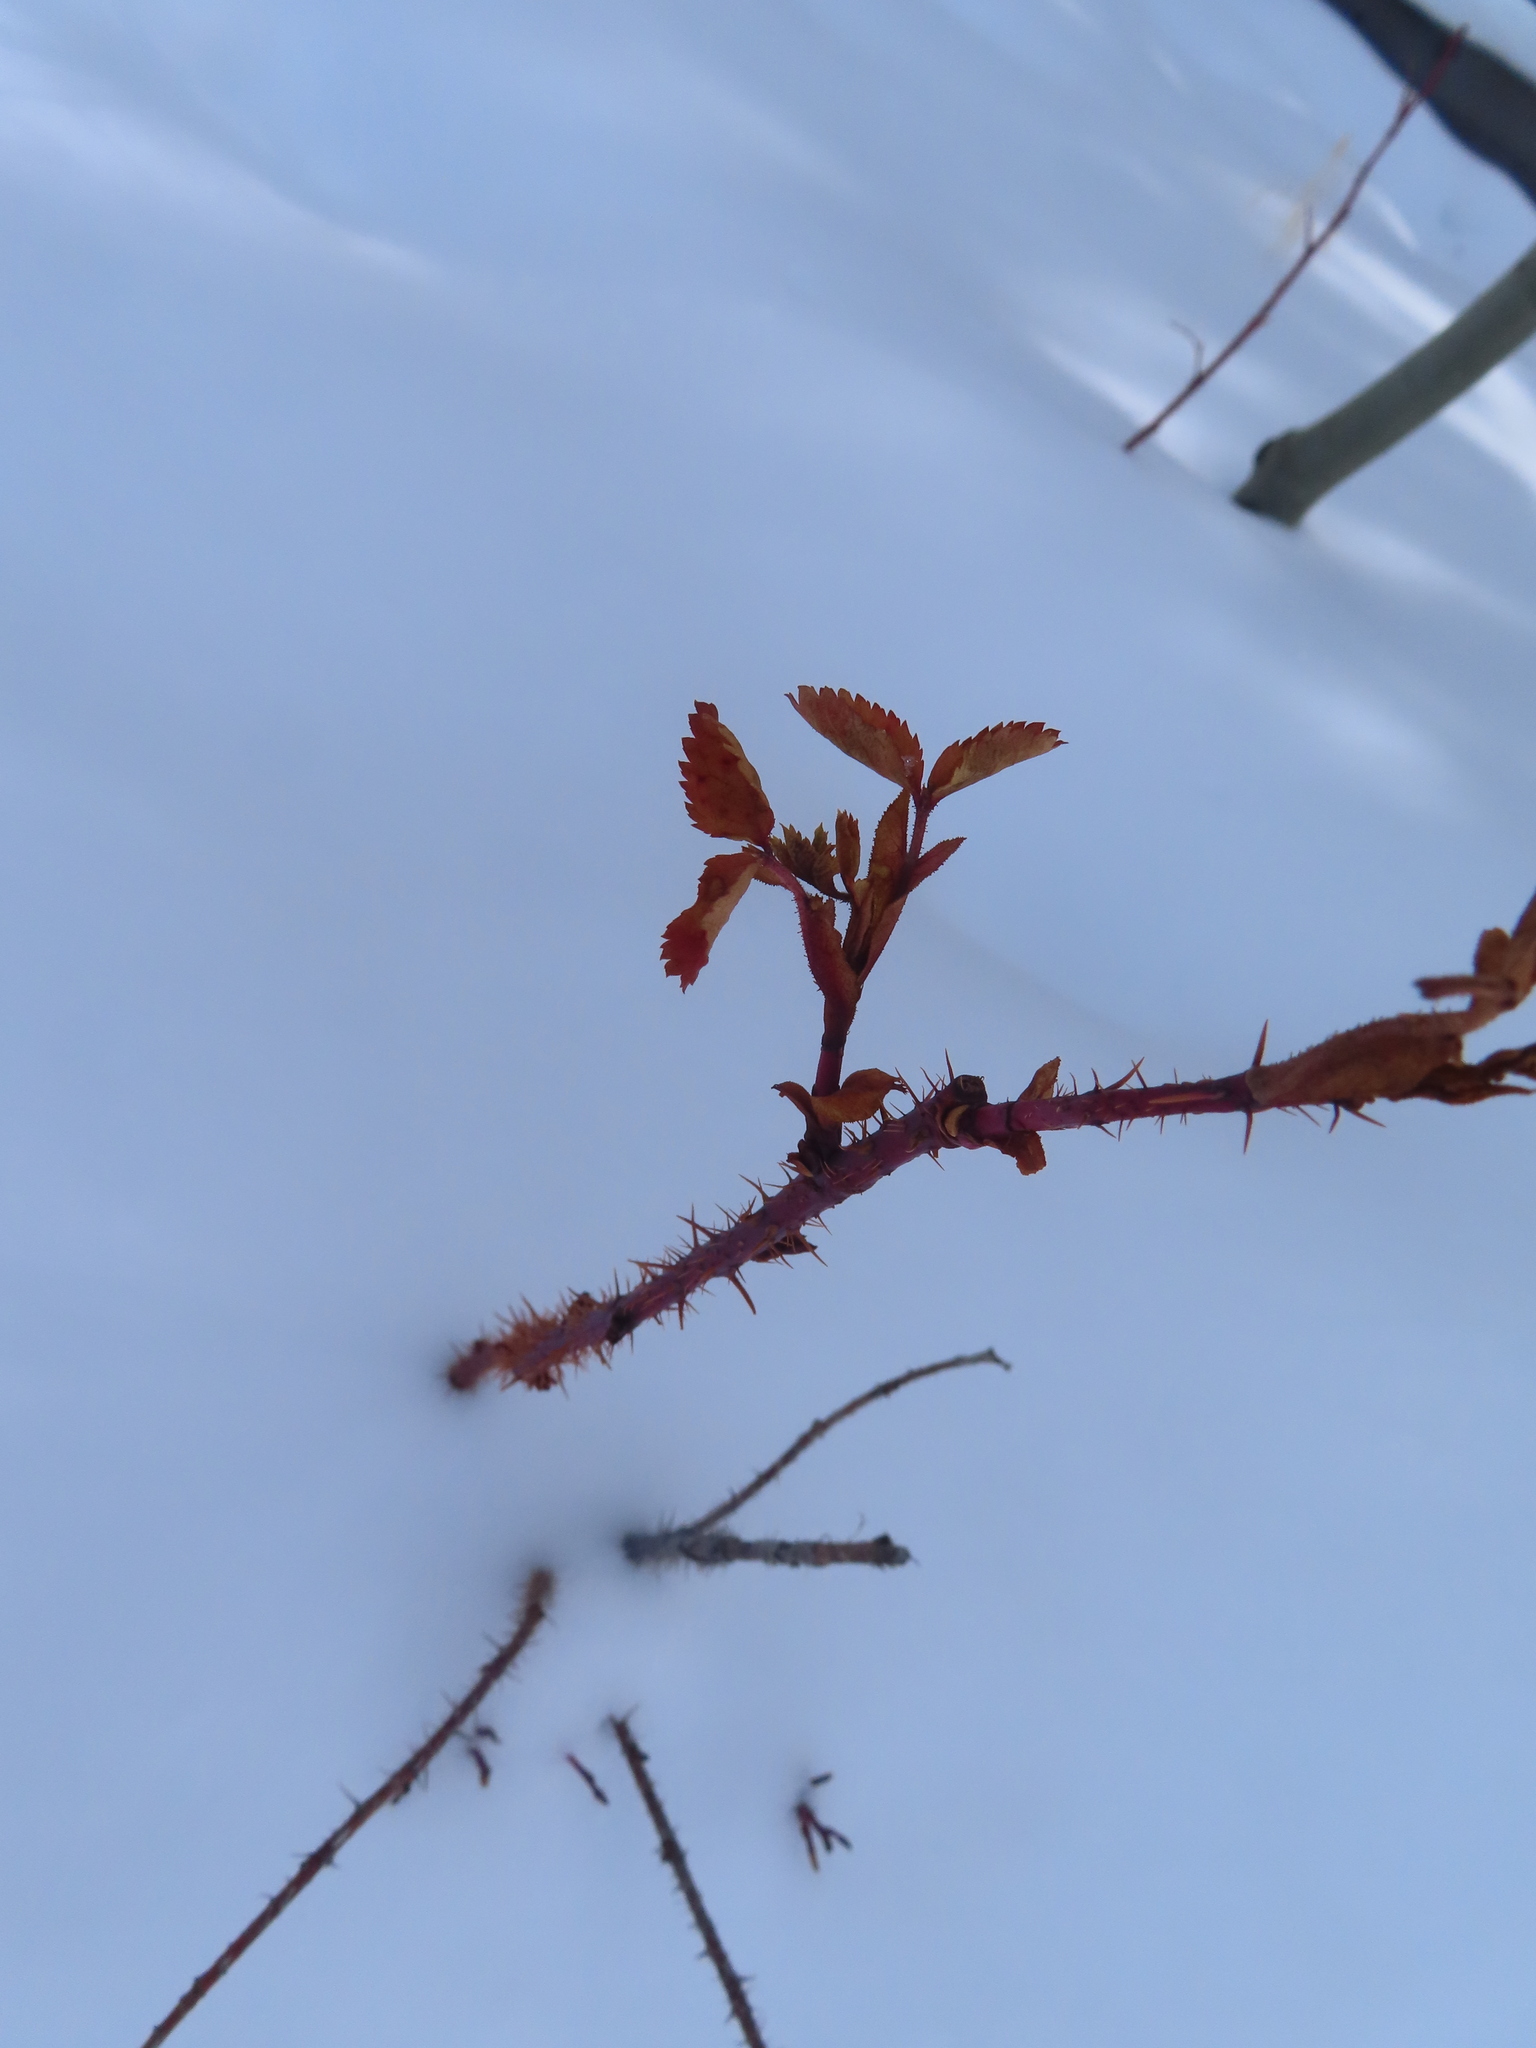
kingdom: Plantae
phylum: Tracheophyta
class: Magnoliopsida
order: Rosales
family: Rosaceae
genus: Rosa
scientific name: Rosa woodsii
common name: Woods's rose
